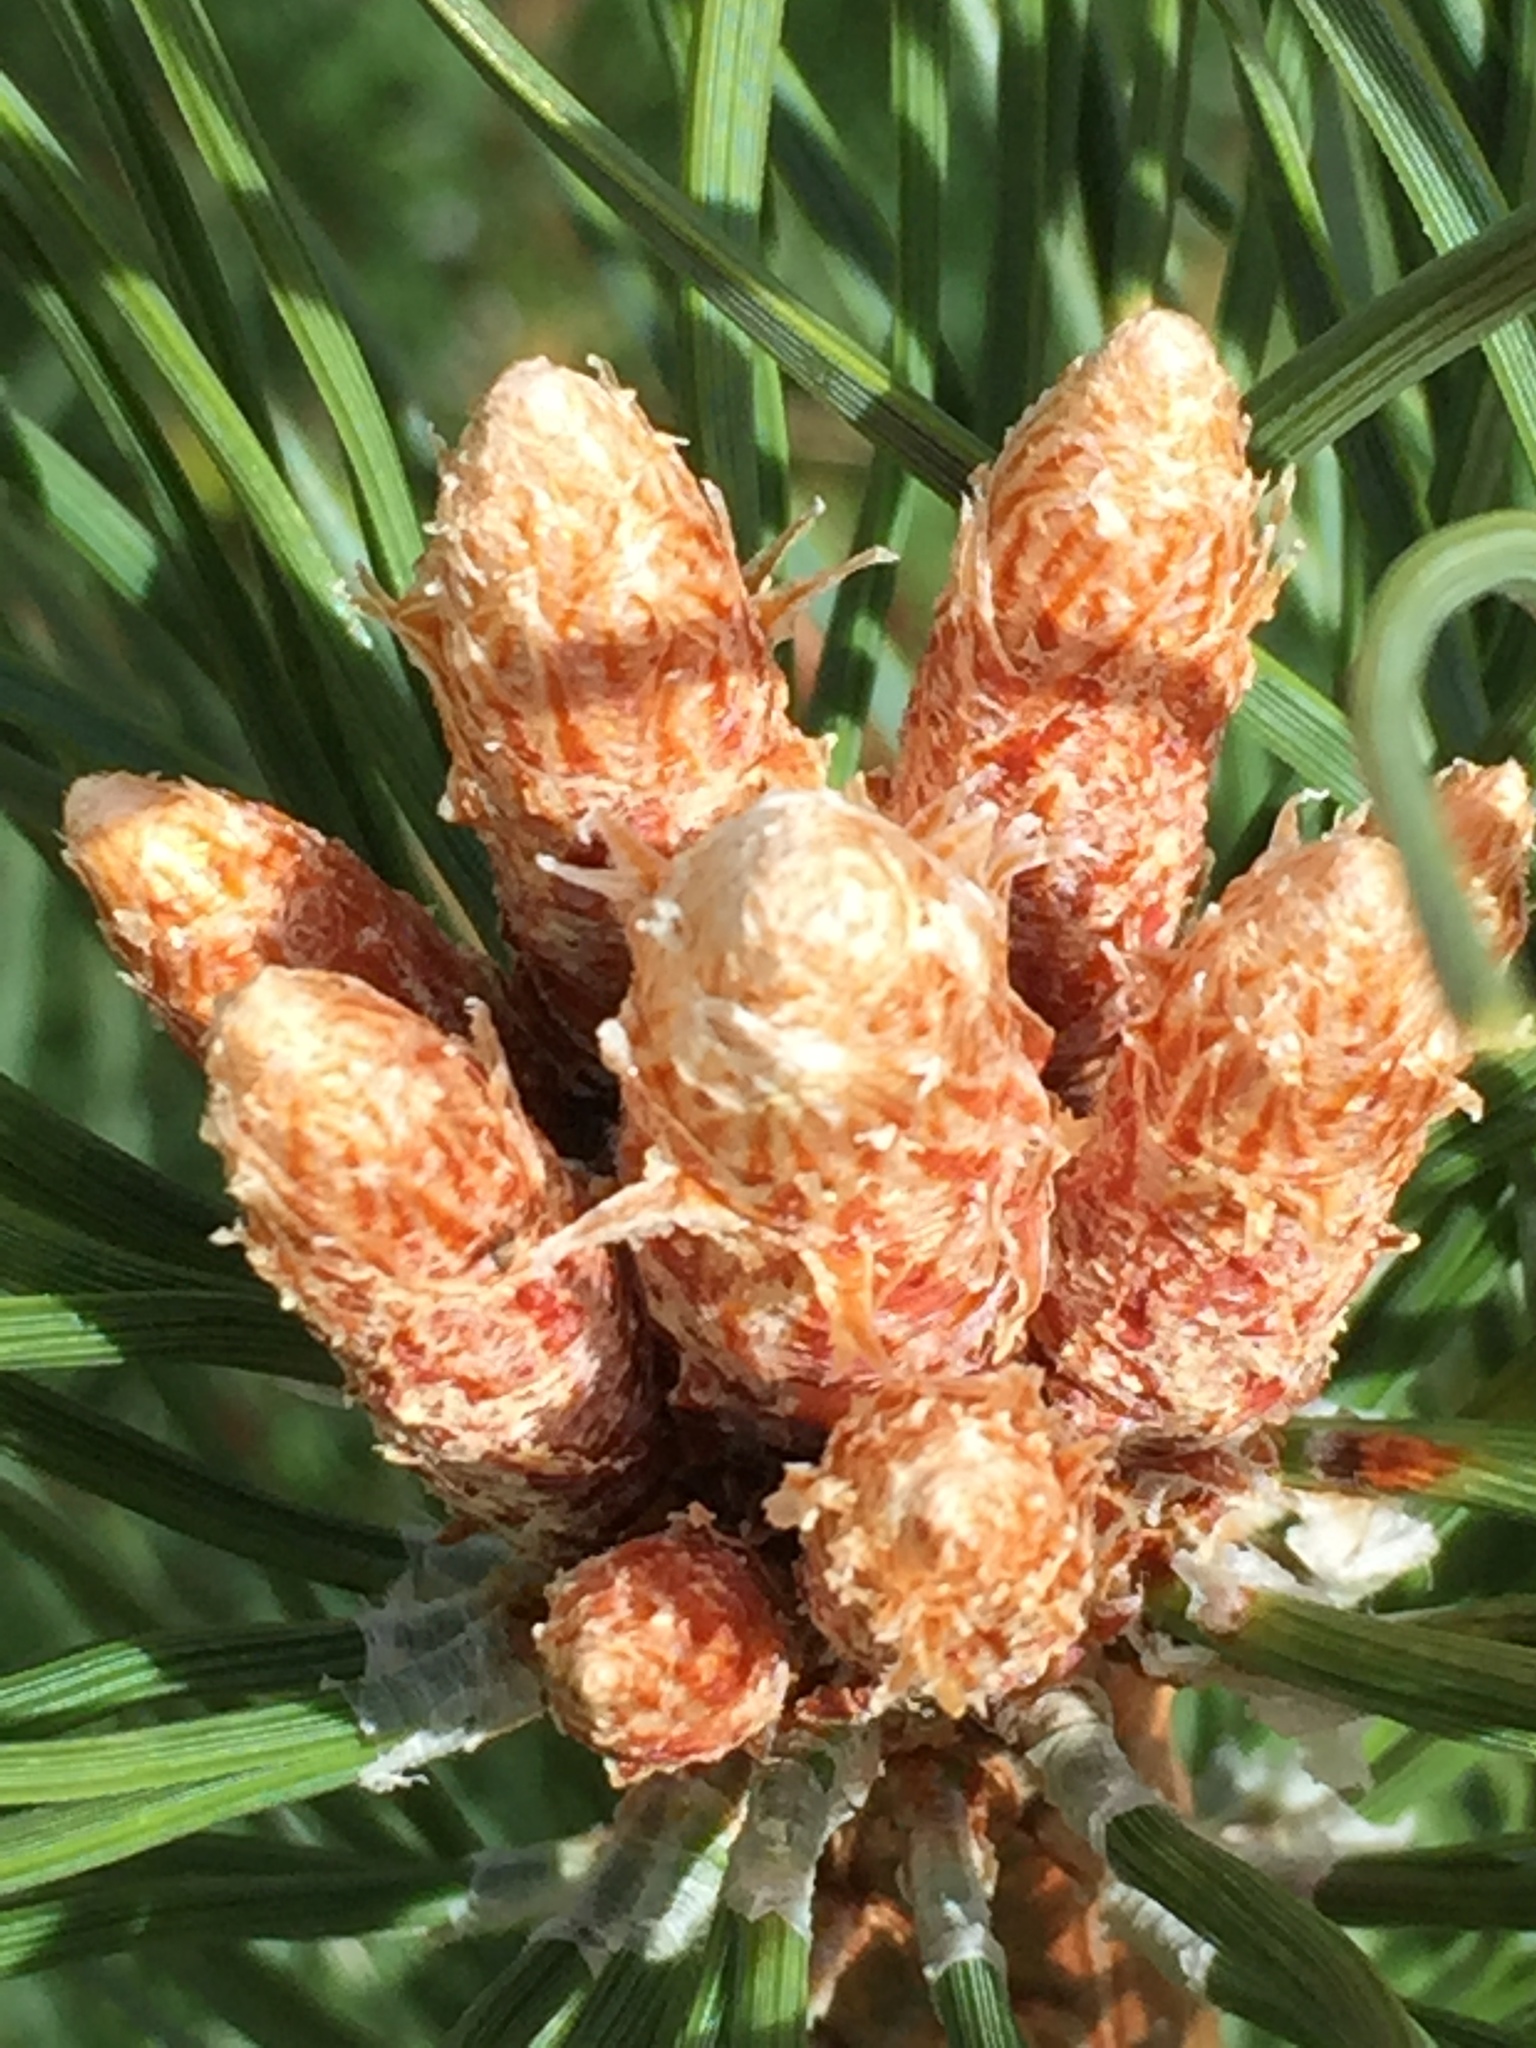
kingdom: Plantae
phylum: Tracheophyta
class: Pinopsida
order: Pinales
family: Pinaceae
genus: Pinus
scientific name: Pinus sylvestris
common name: Scots pine
